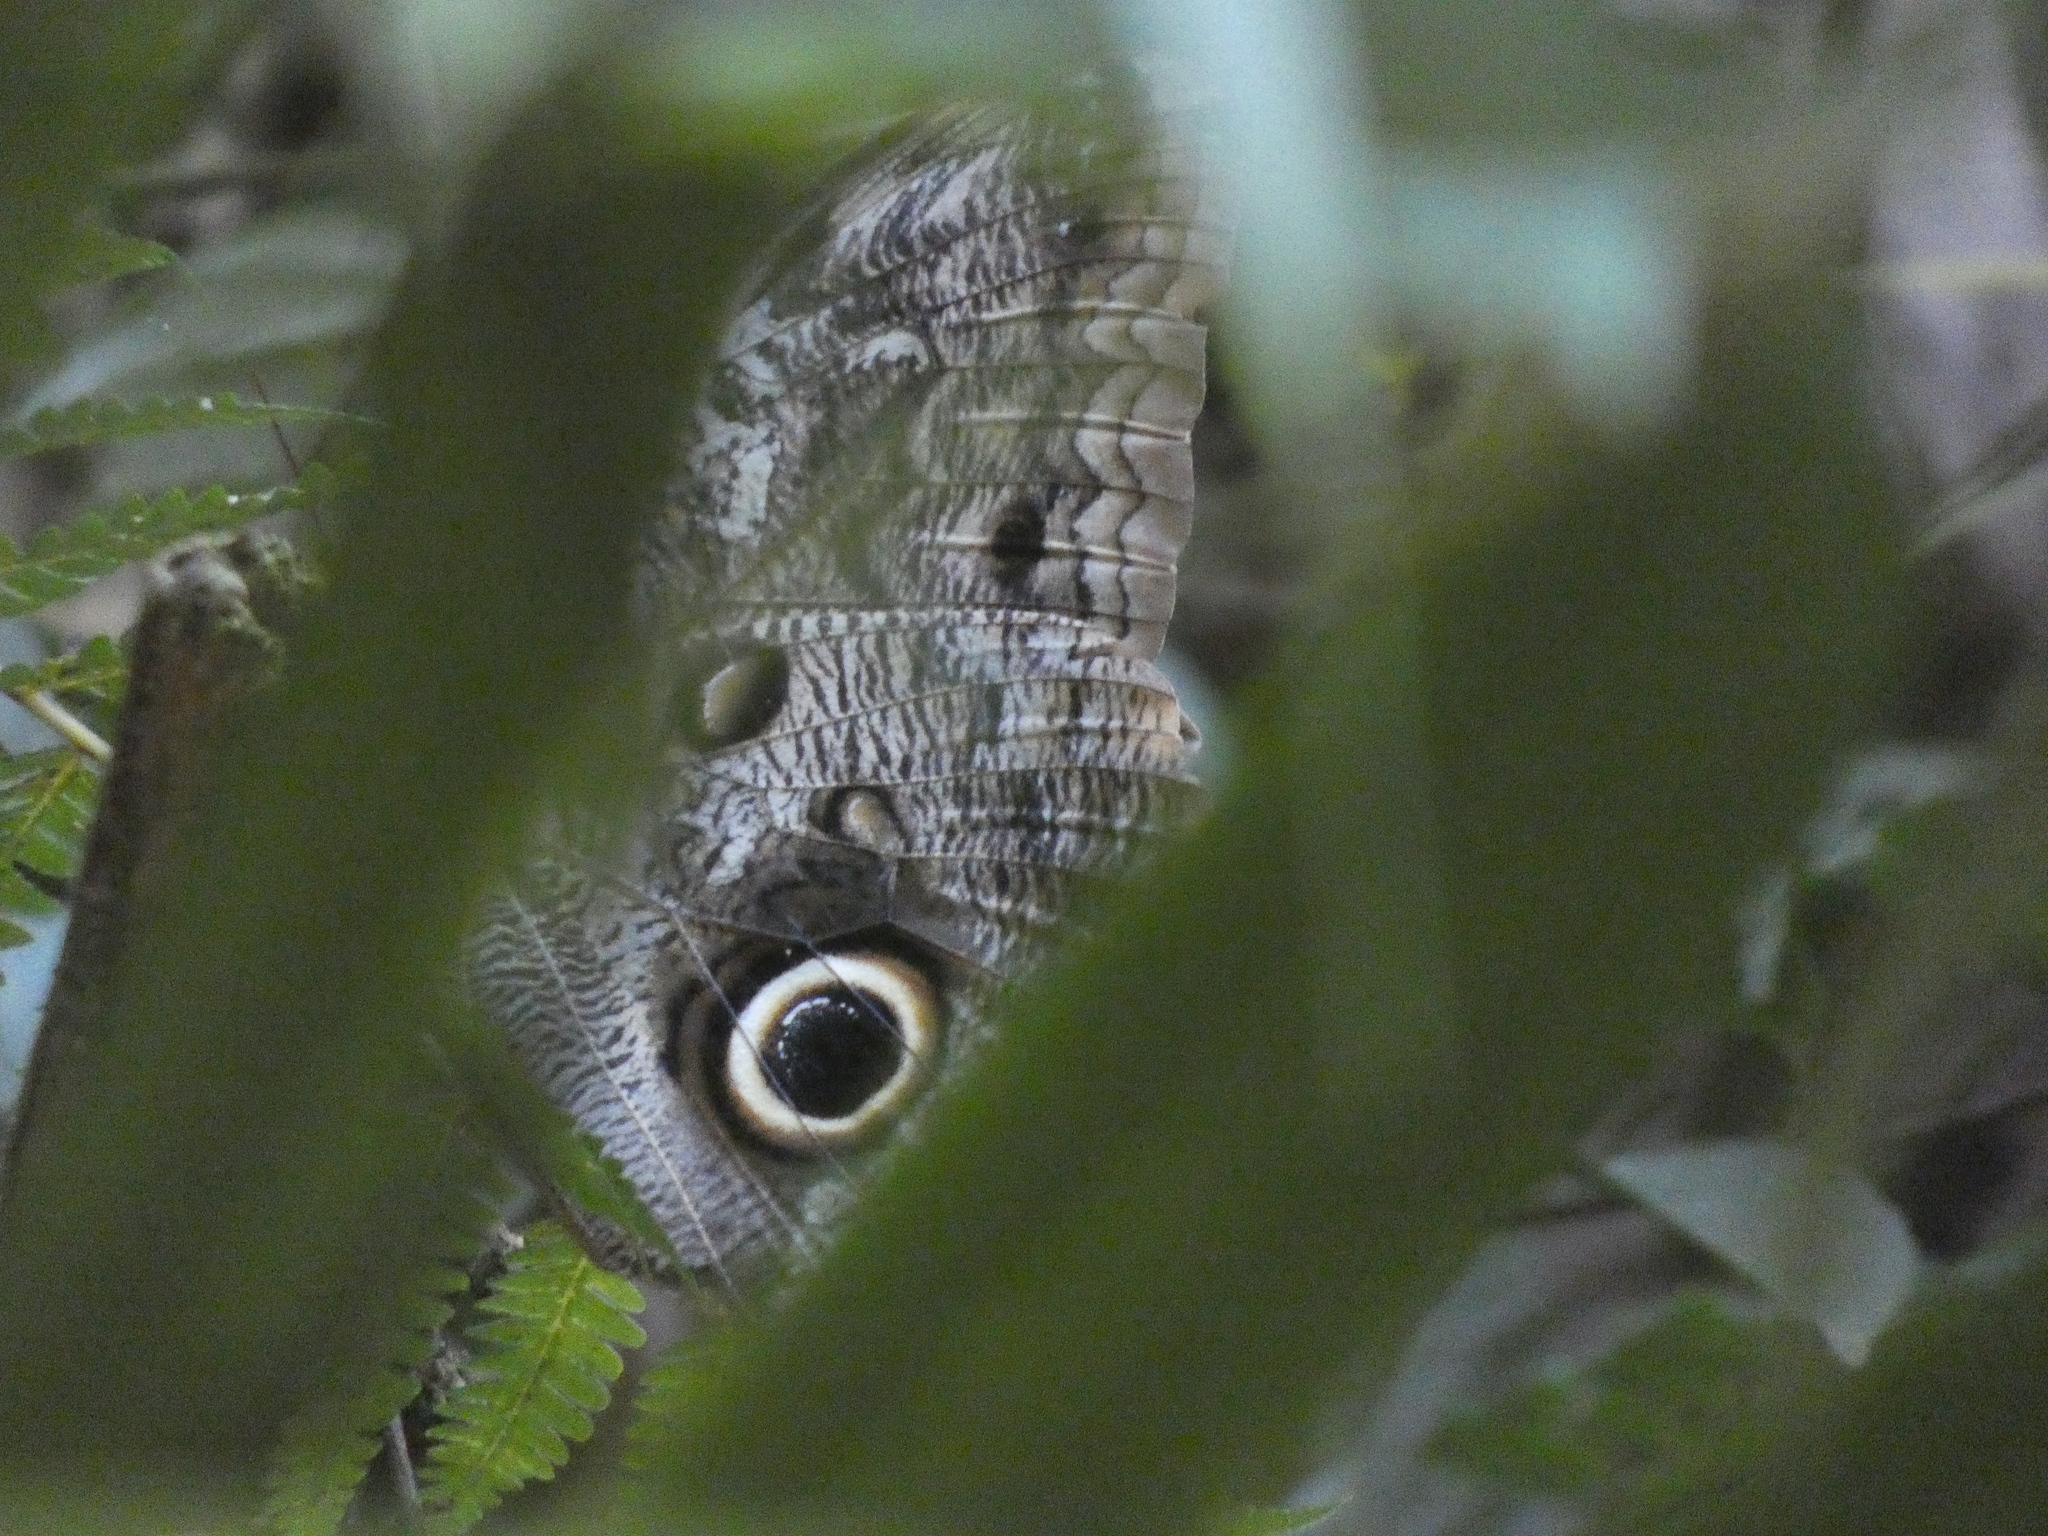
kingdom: Animalia
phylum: Arthropoda
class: Insecta
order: Lepidoptera
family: Nymphalidae
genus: Caligo
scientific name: Caligo brasiliensis
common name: Dark owl-butterfly
